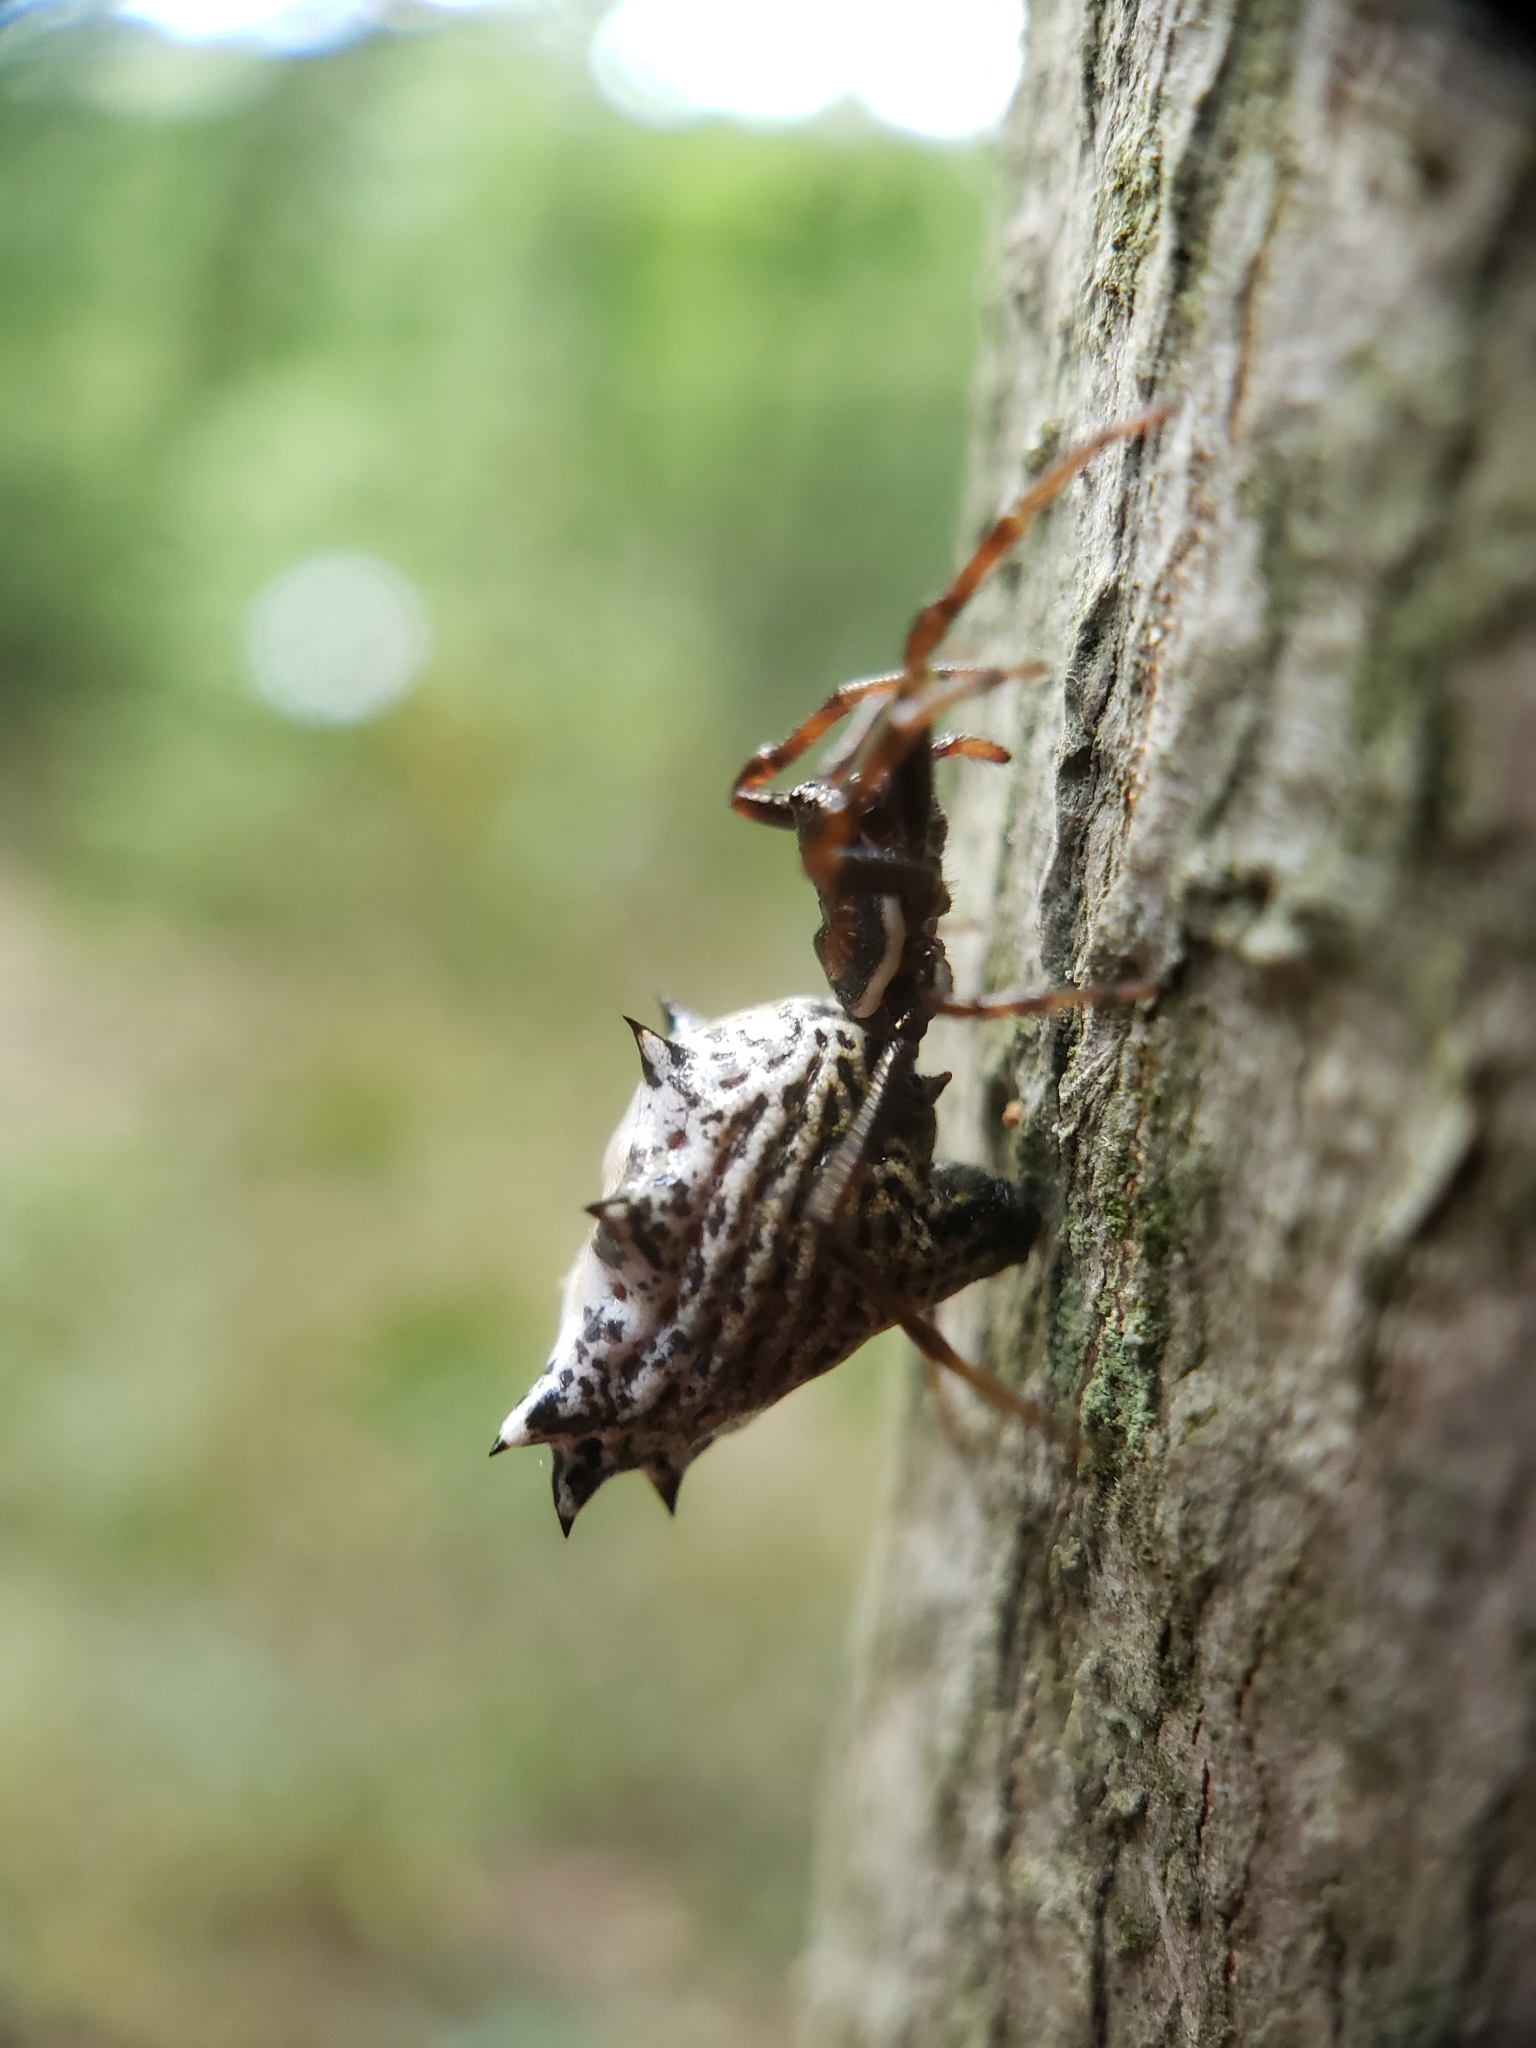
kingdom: Animalia
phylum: Arthropoda
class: Arachnida
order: Araneae
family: Araneidae
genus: Micrathena
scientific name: Micrathena gracilis
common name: Orb weavers
